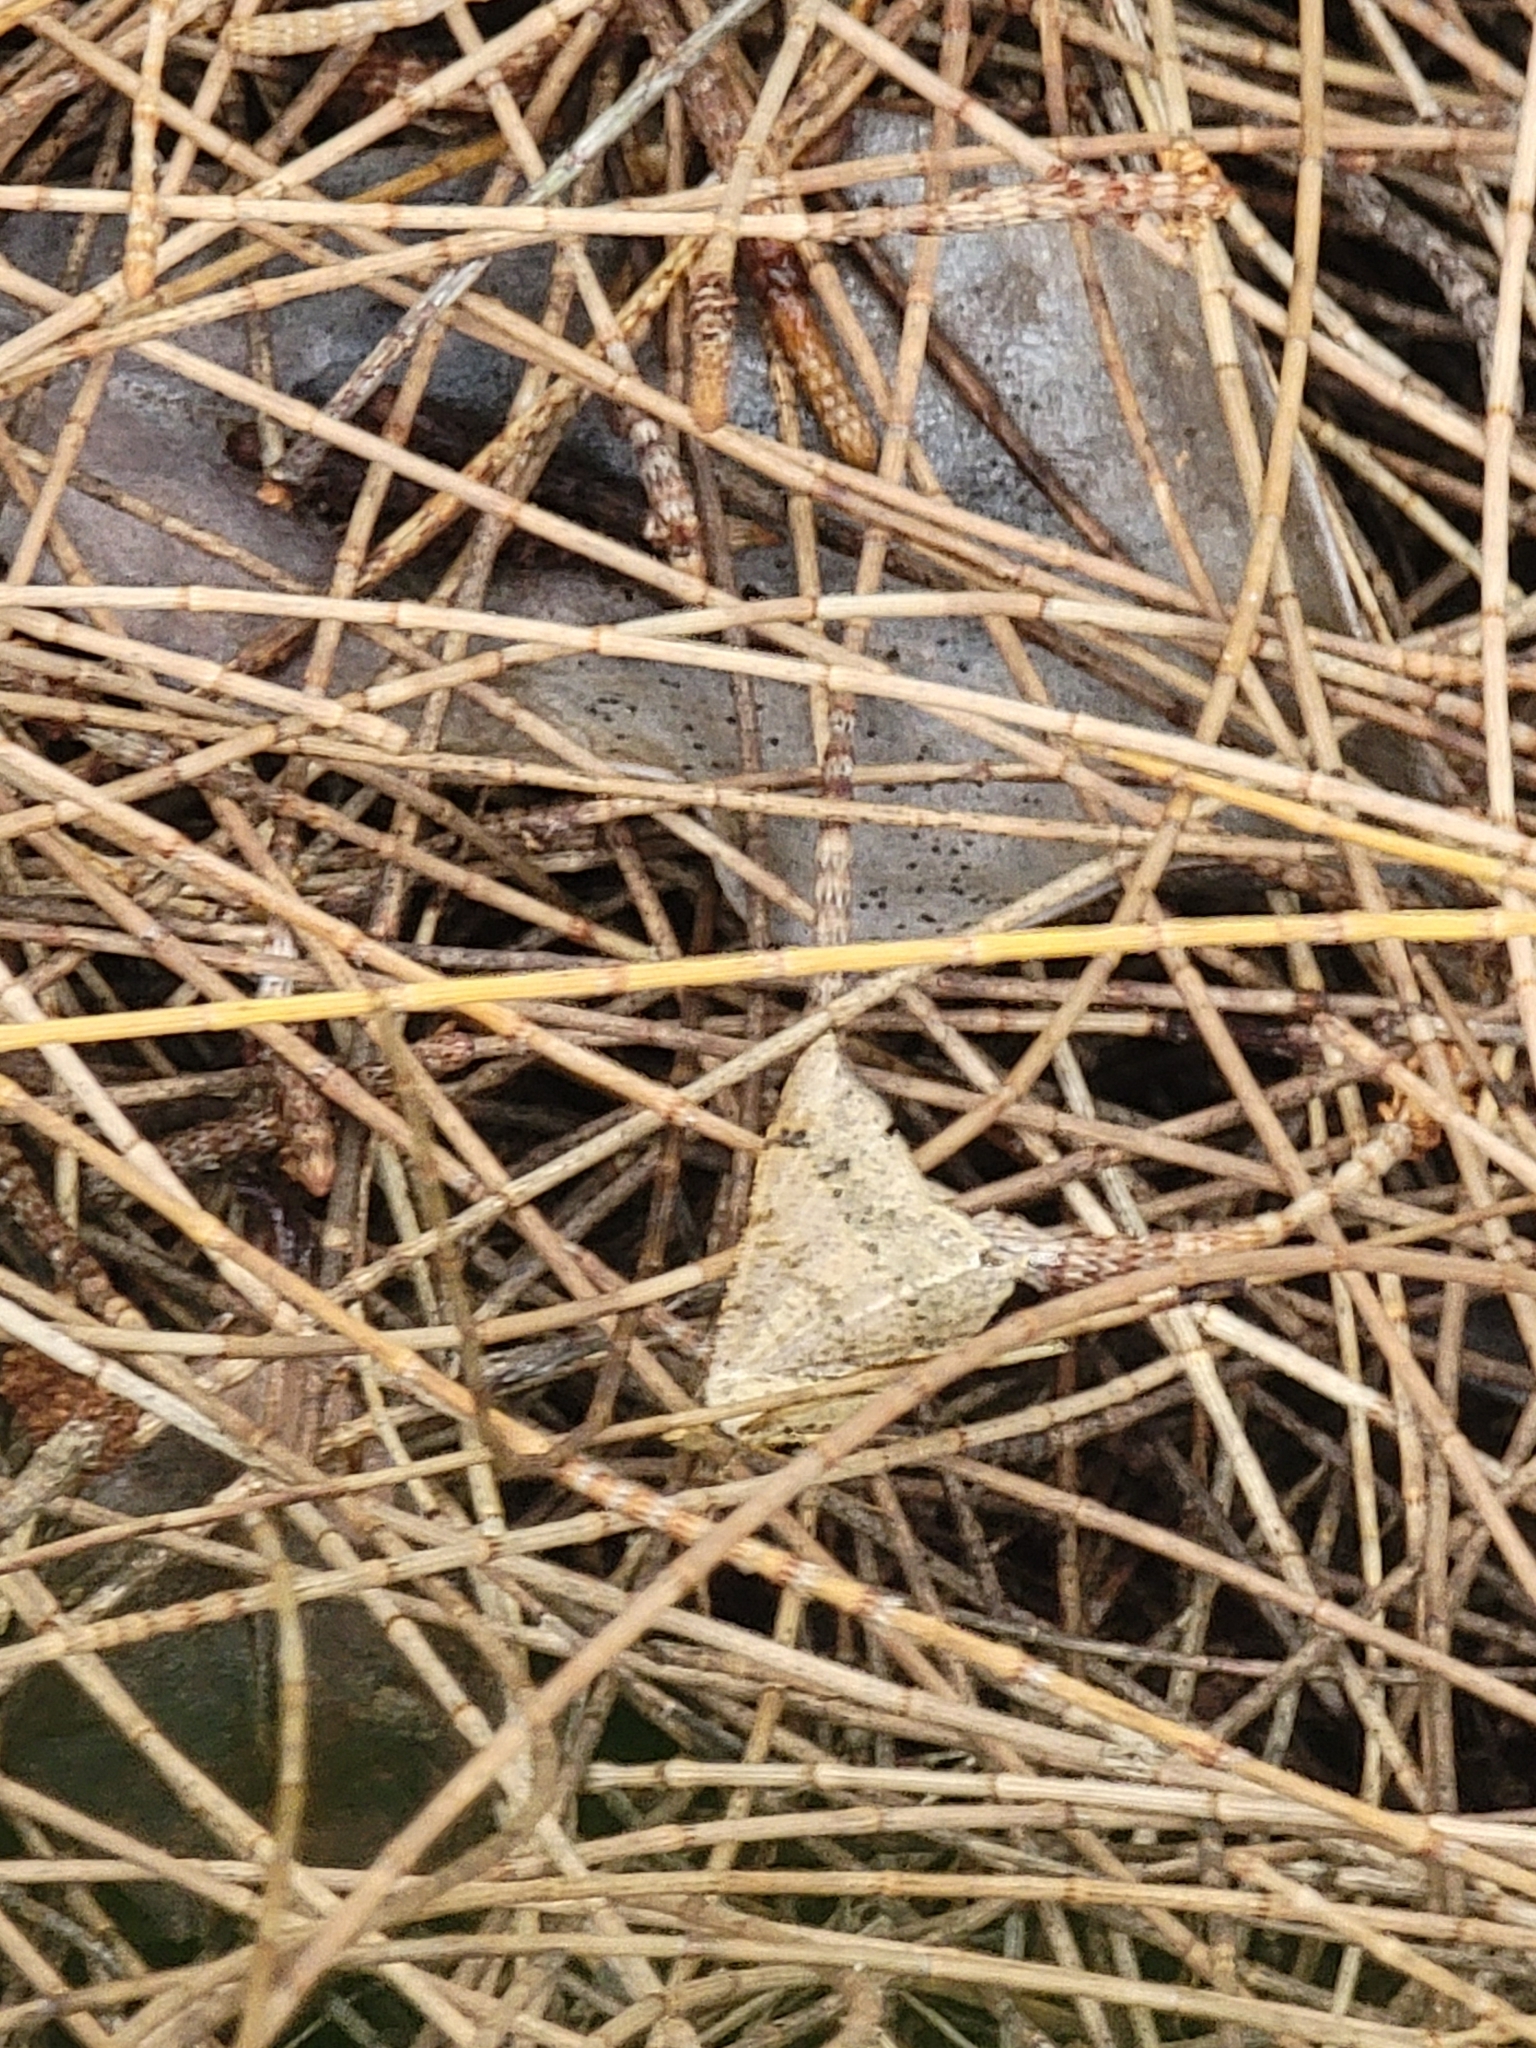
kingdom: Animalia
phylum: Arthropoda
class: Insecta
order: Lepidoptera
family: Geometridae
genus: Macaria
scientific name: Macaria abydata
